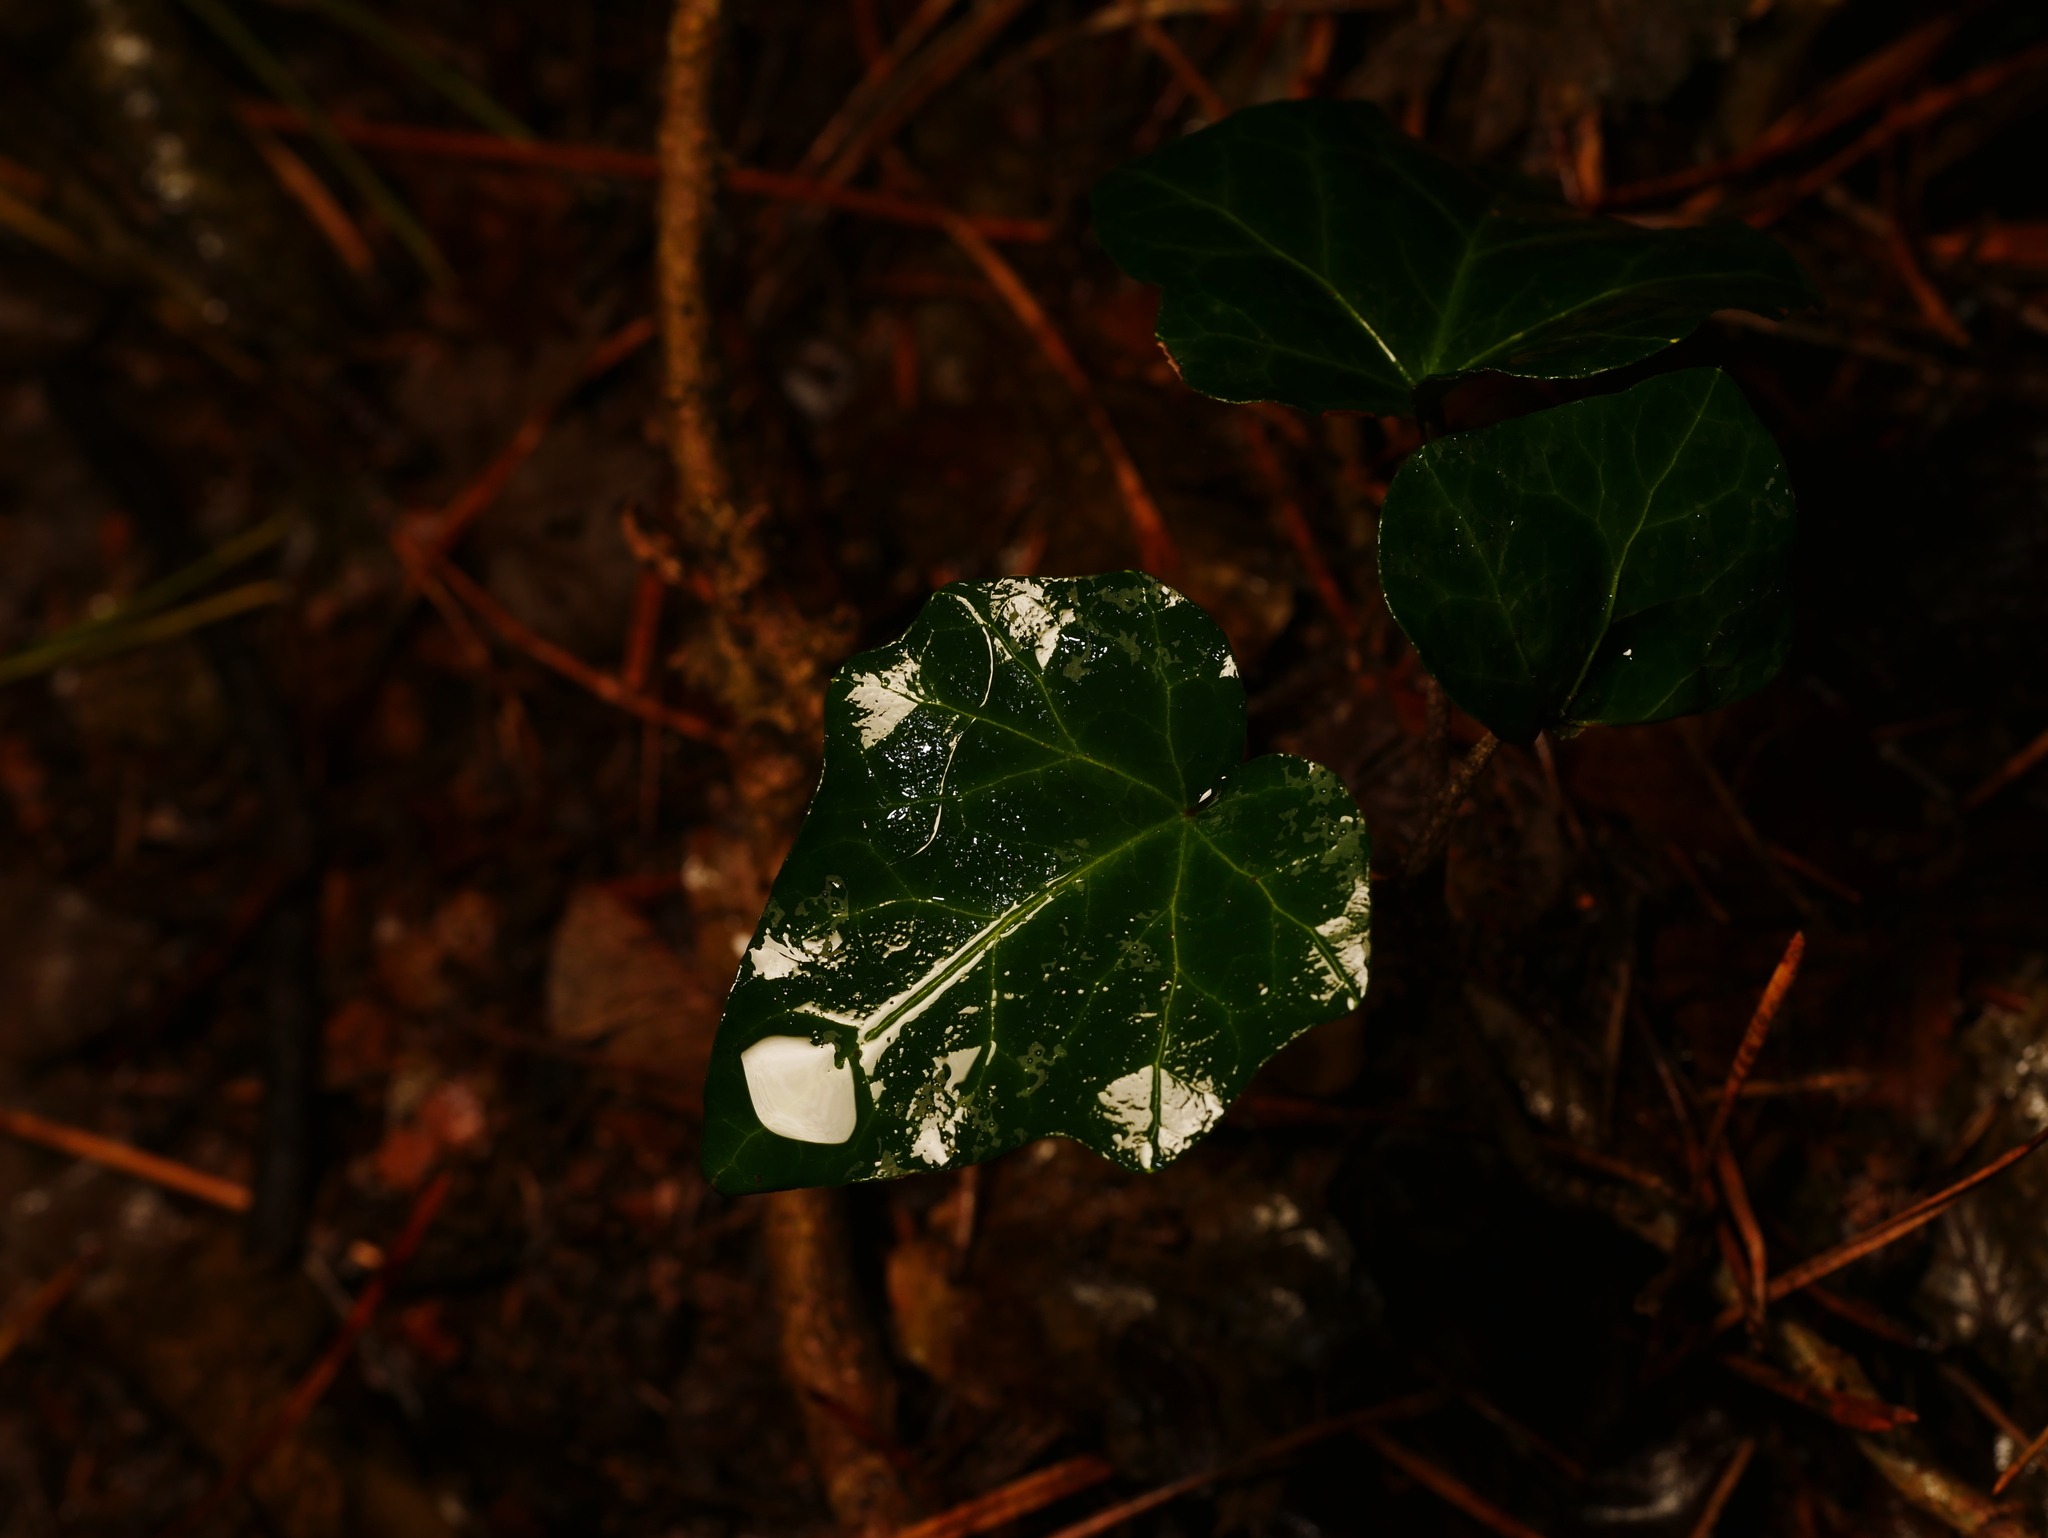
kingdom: Plantae
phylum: Tracheophyta
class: Magnoliopsida
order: Apiales
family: Araliaceae
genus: Hedera
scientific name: Hedera helix
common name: Ivy
